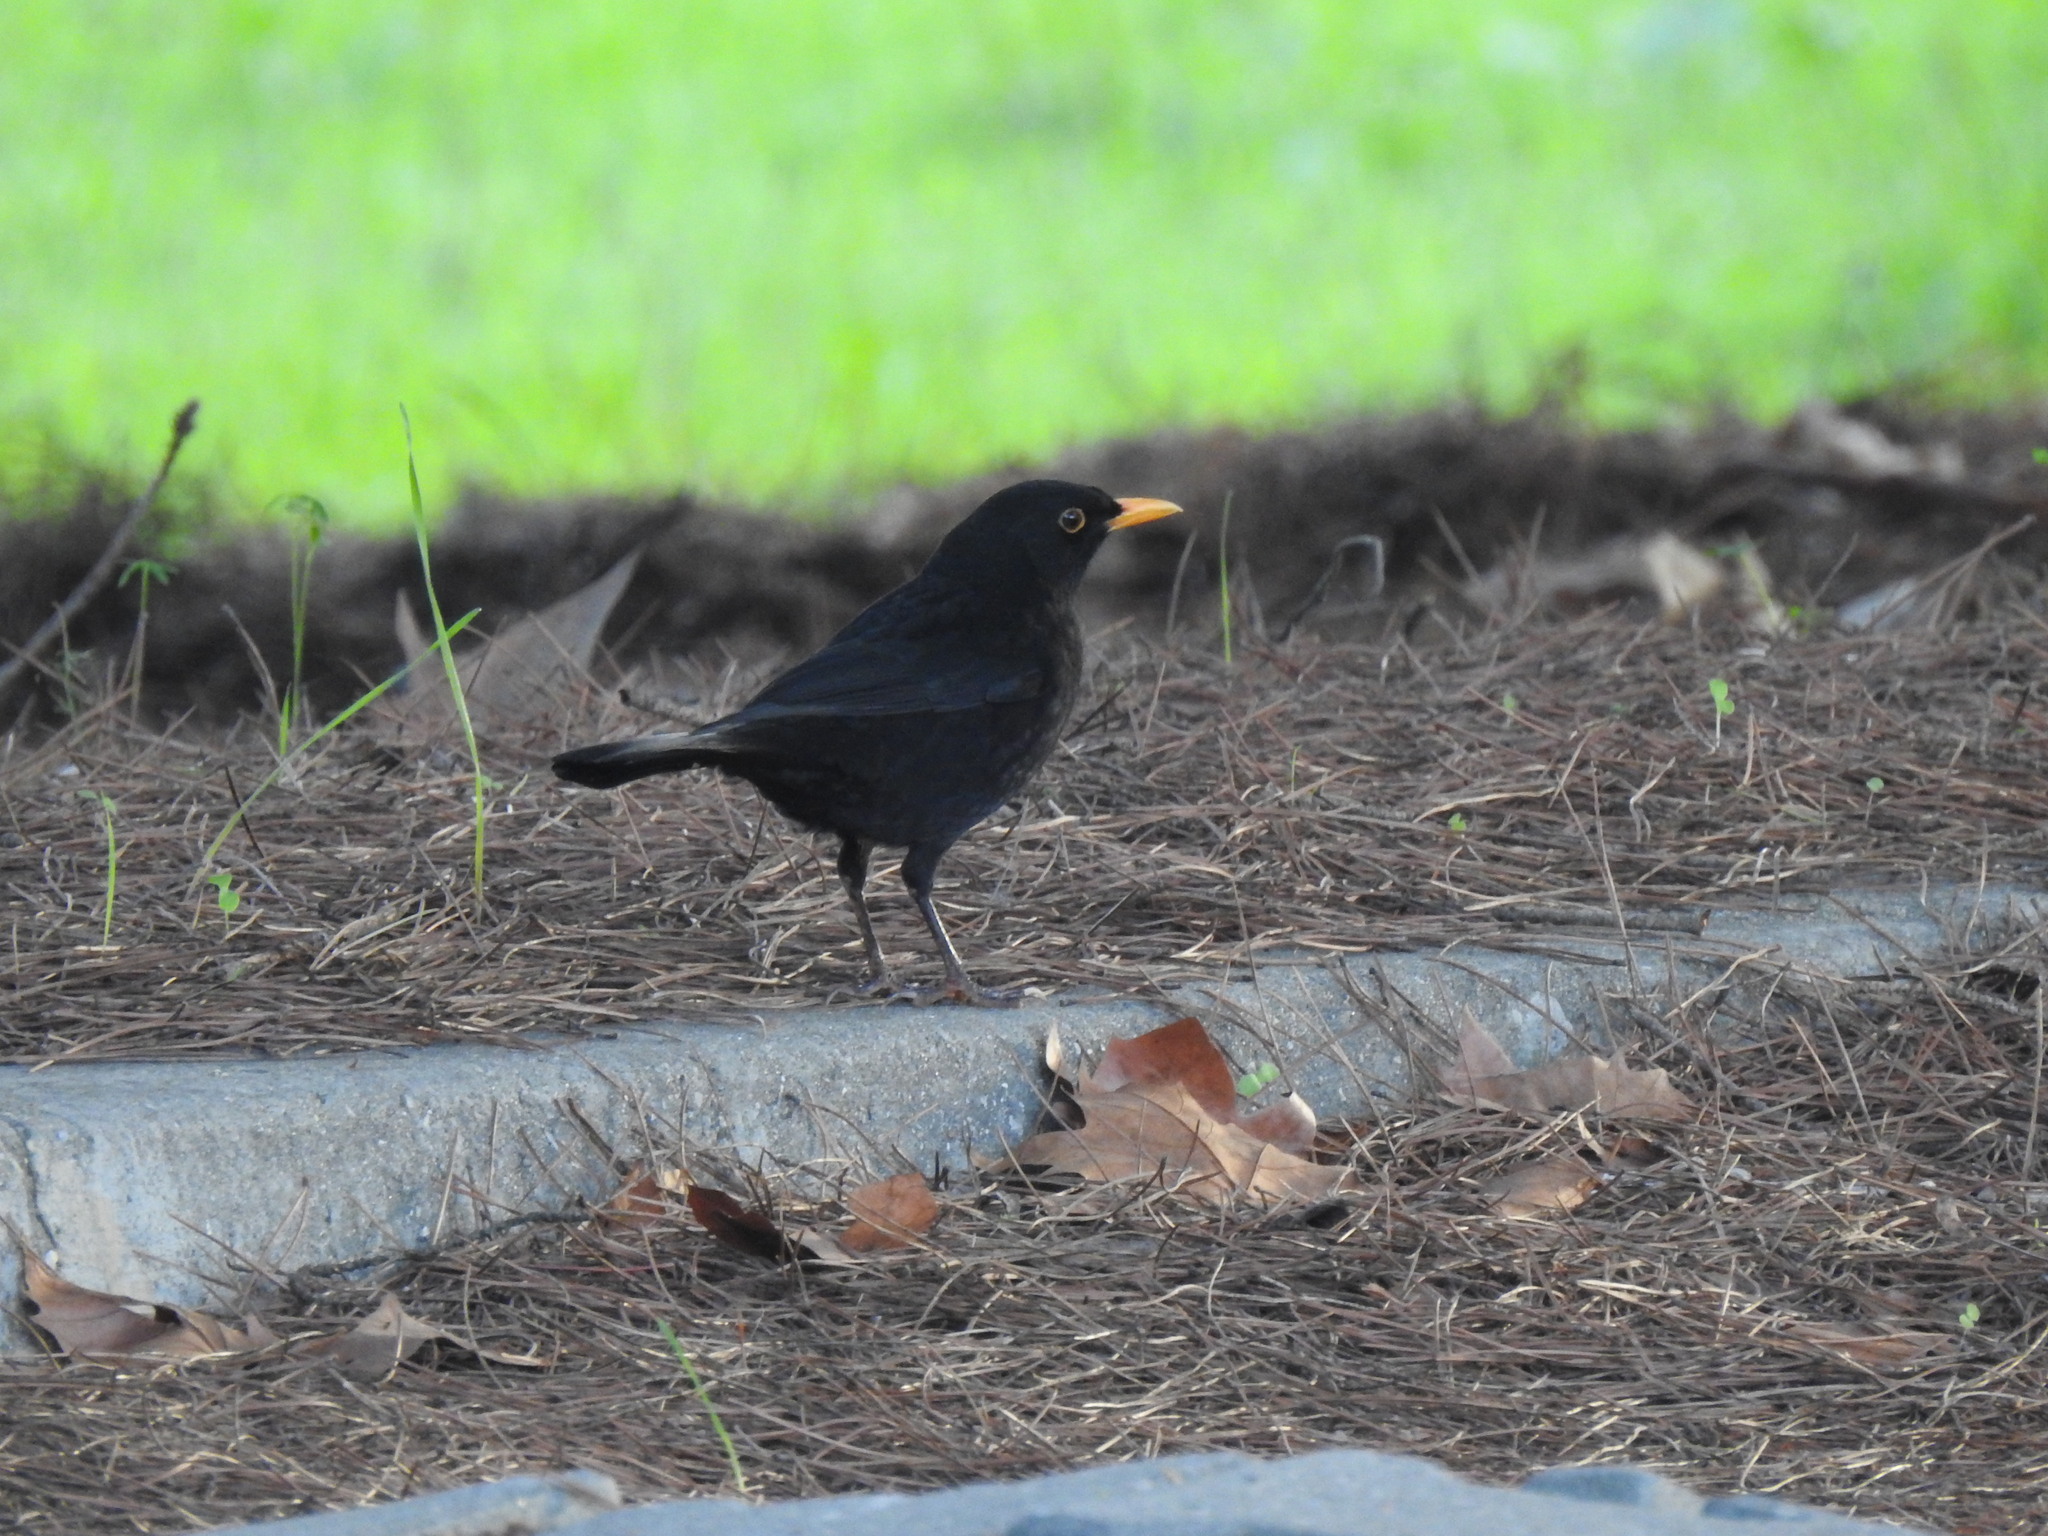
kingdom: Animalia
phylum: Chordata
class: Aves
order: Passeriformes
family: Turdidae
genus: Turdus
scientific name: Turdus merula
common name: Common blackbird
